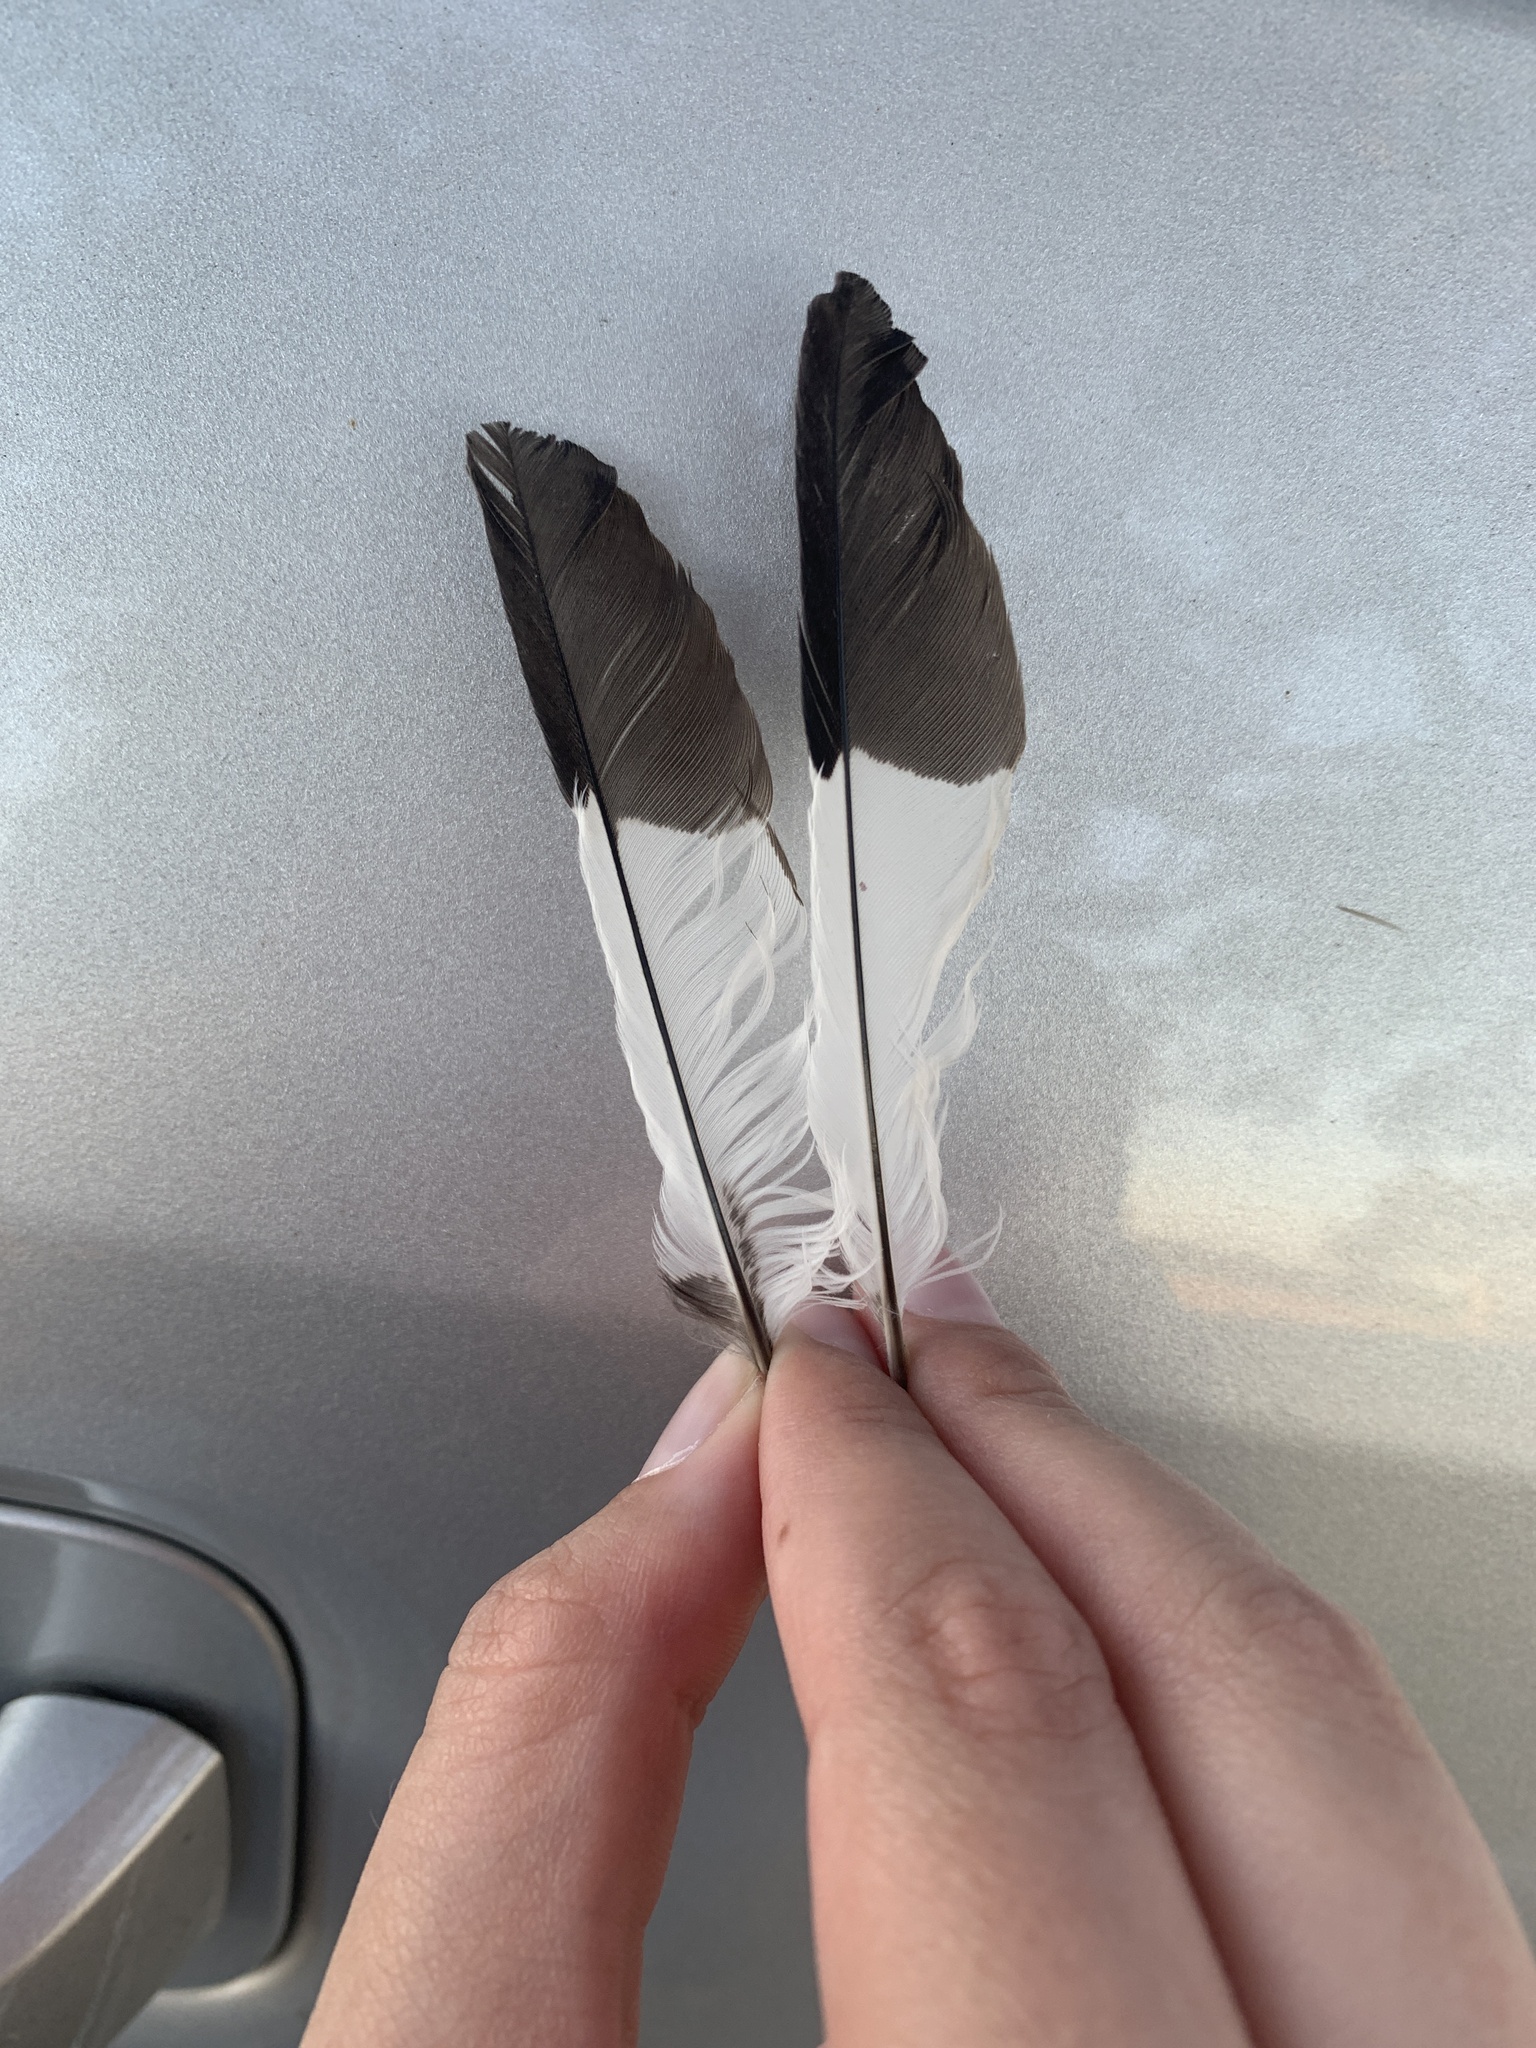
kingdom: Animalia
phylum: Chordata
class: Aves
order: Piciformes
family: Picidae
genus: Melanerpes
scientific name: Melanerpes formicivorus
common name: Acorn woodpecker
